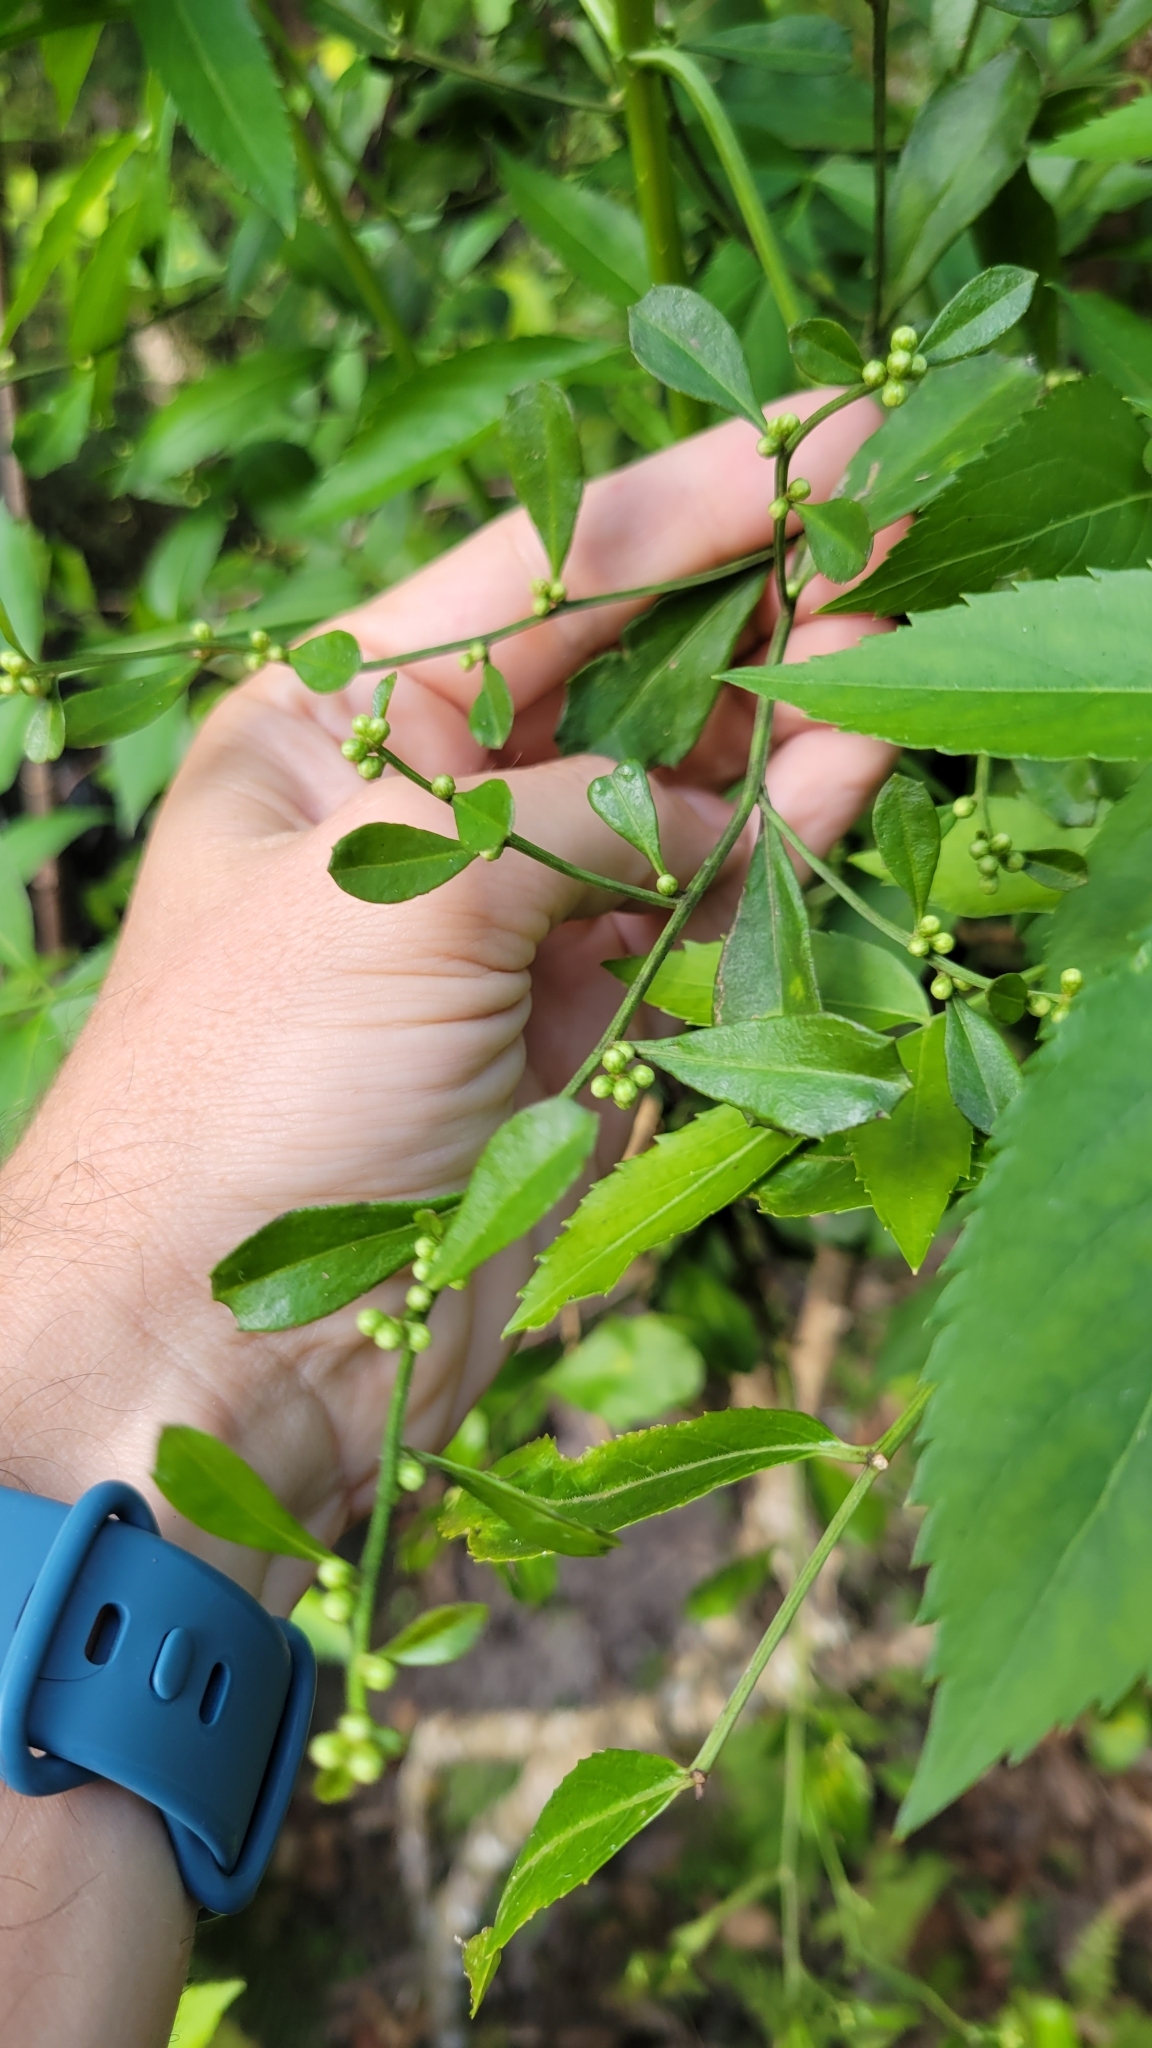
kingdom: Plantae
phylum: Tracheophyta
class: Magnoliopsida
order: Asterales
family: Asteraceae
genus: Baccharis
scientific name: Baccharis glomeruliflora
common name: Silverling groundsel bush
